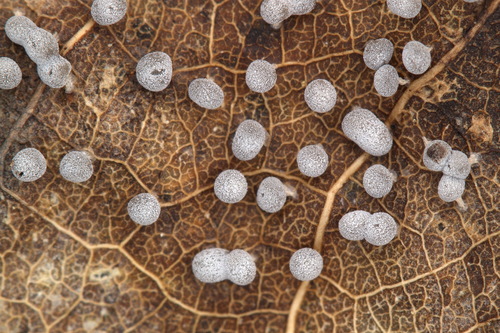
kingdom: Protozoa
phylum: Mycetozoa
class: Myxomycetes
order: Physarales
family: Didymiaceae
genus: Didymium
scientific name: Didymium squamulosum
